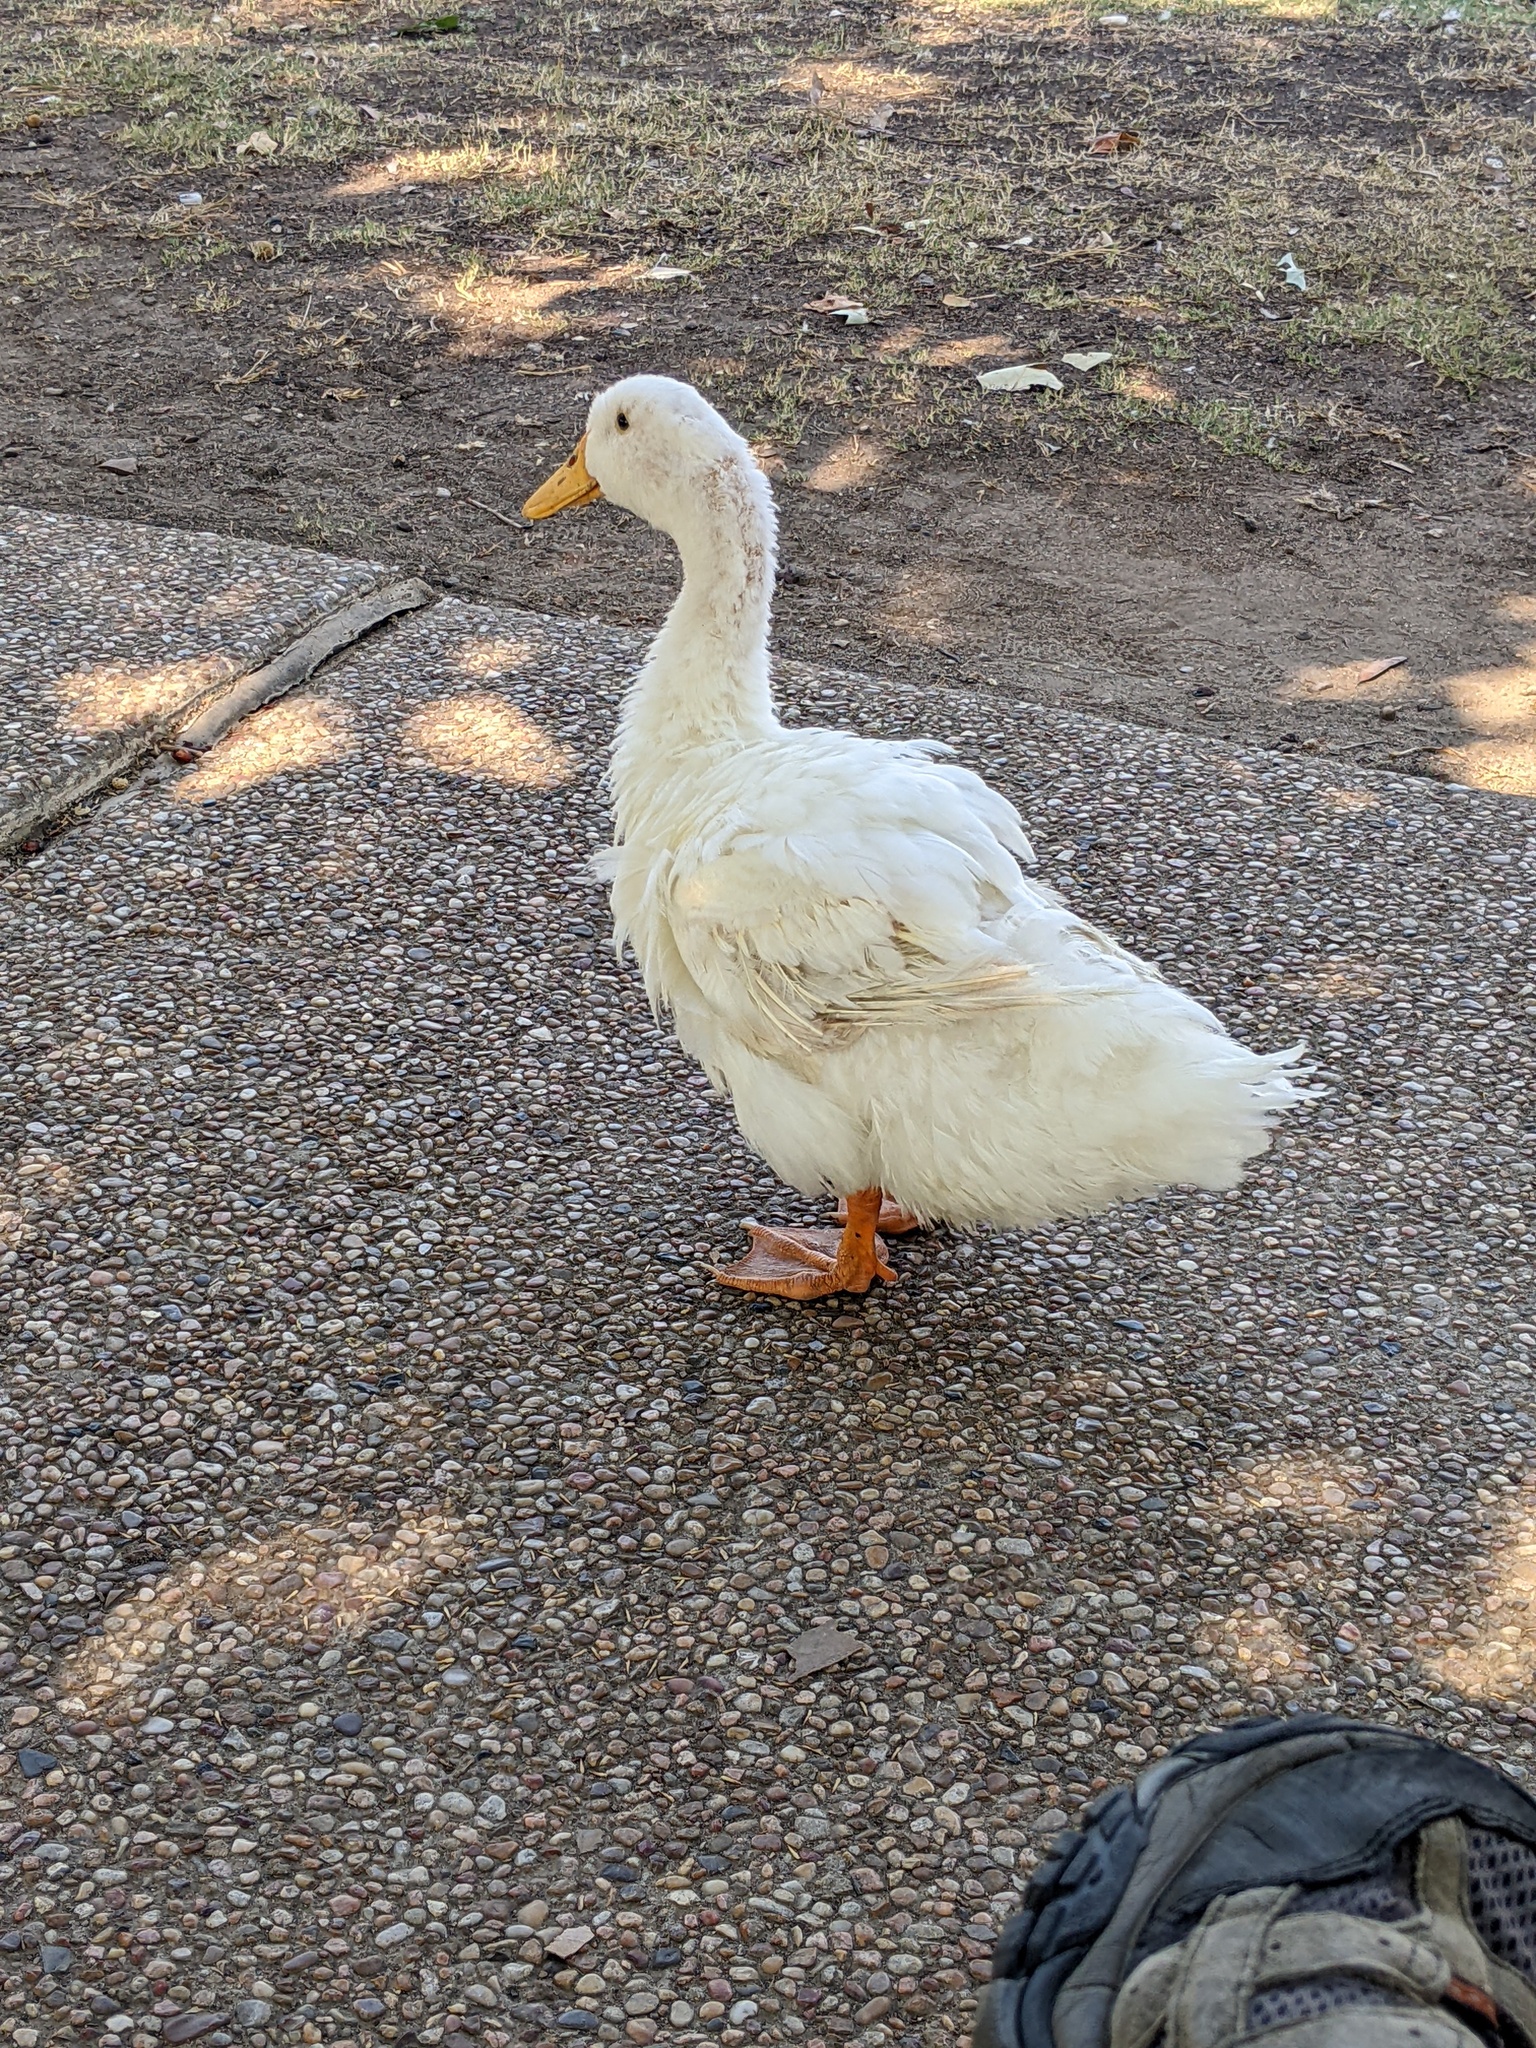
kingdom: Animalia
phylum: Chordata
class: Aves
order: Anseriformes
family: Anatidae
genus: Anas
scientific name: Anas platyrhynchos
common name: Mallard
